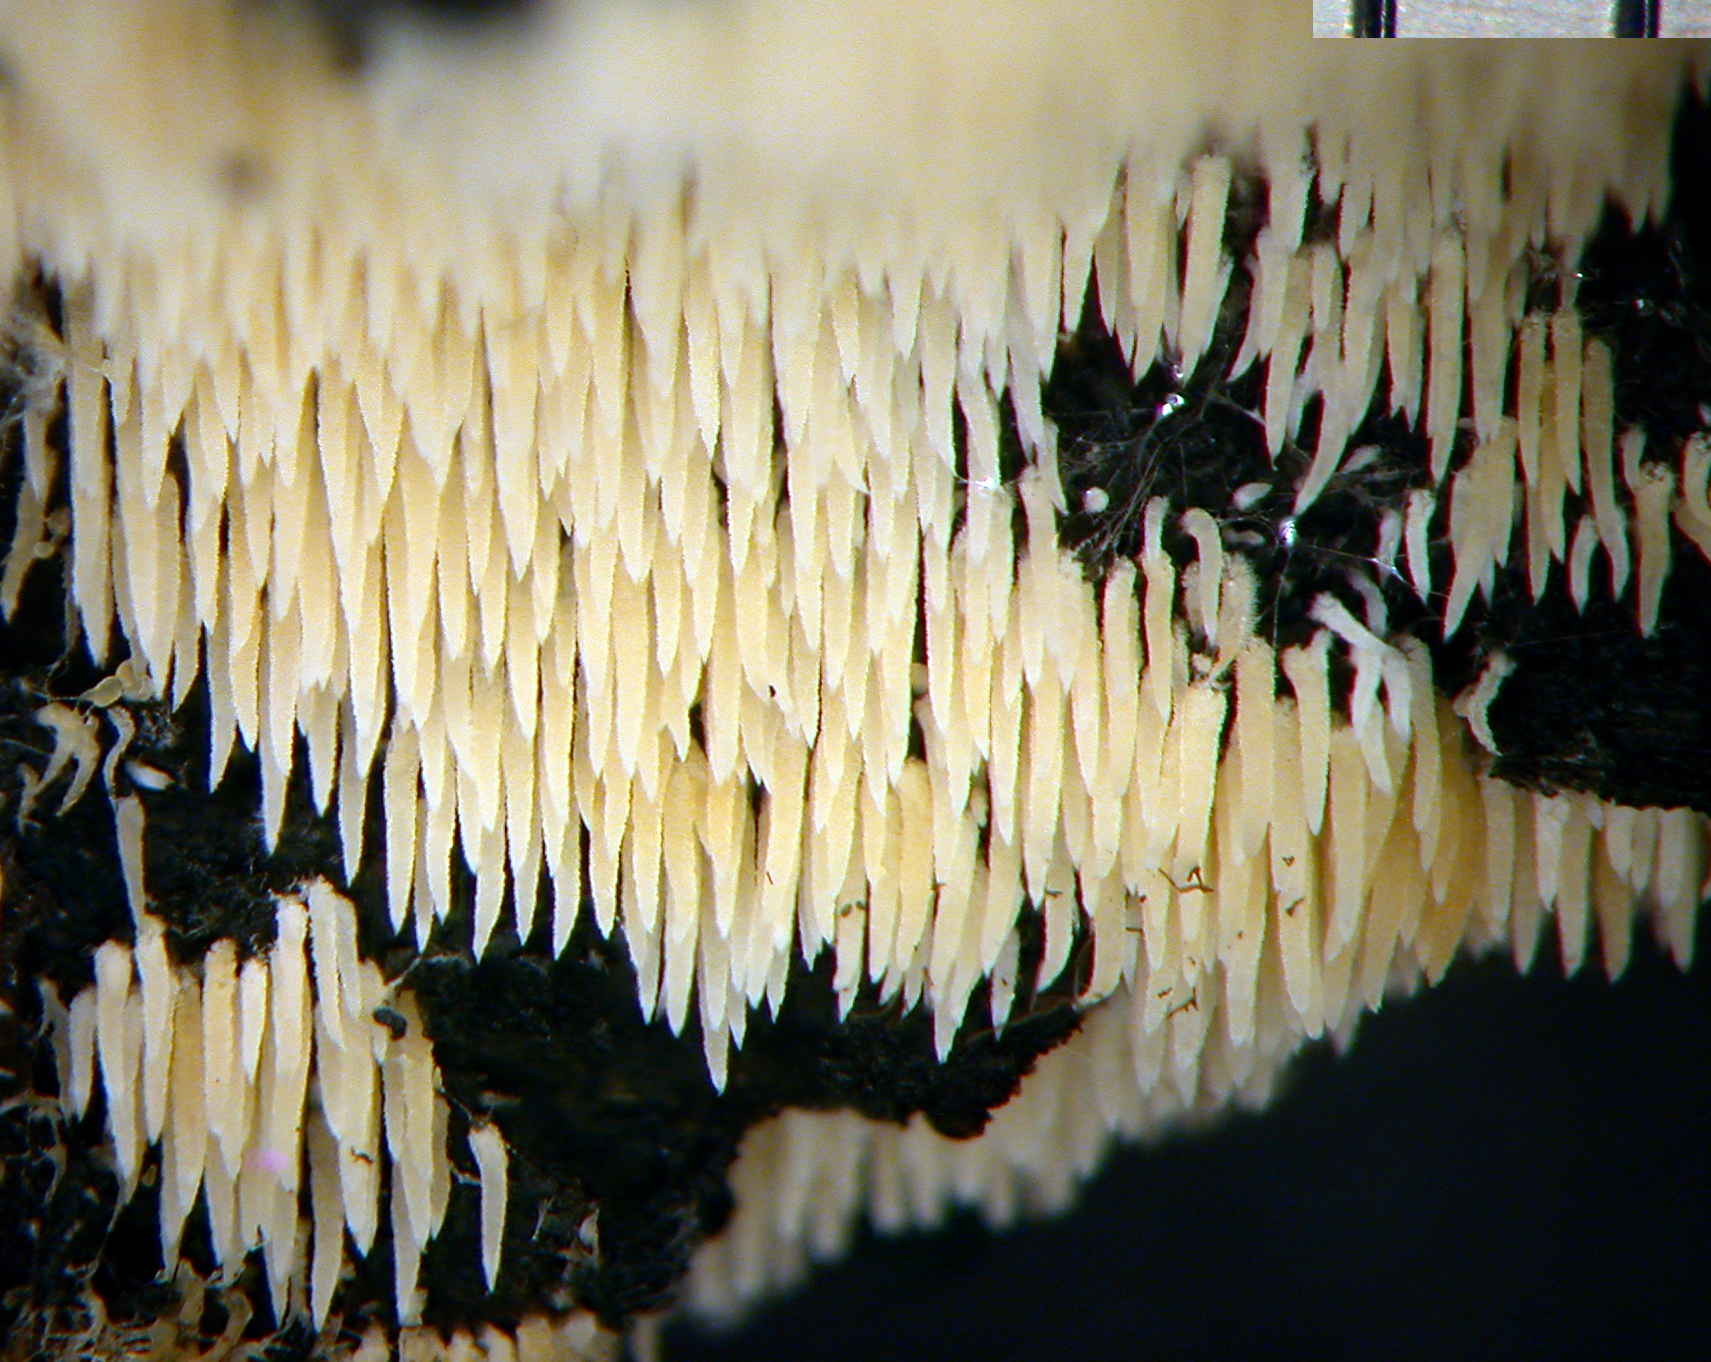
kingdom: Fungi
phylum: Basidiomycota
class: Agaricomycetes
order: Agaricales
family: Clavariaceae
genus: Mucronella
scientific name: Mucronella calva
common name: Swarming spine
